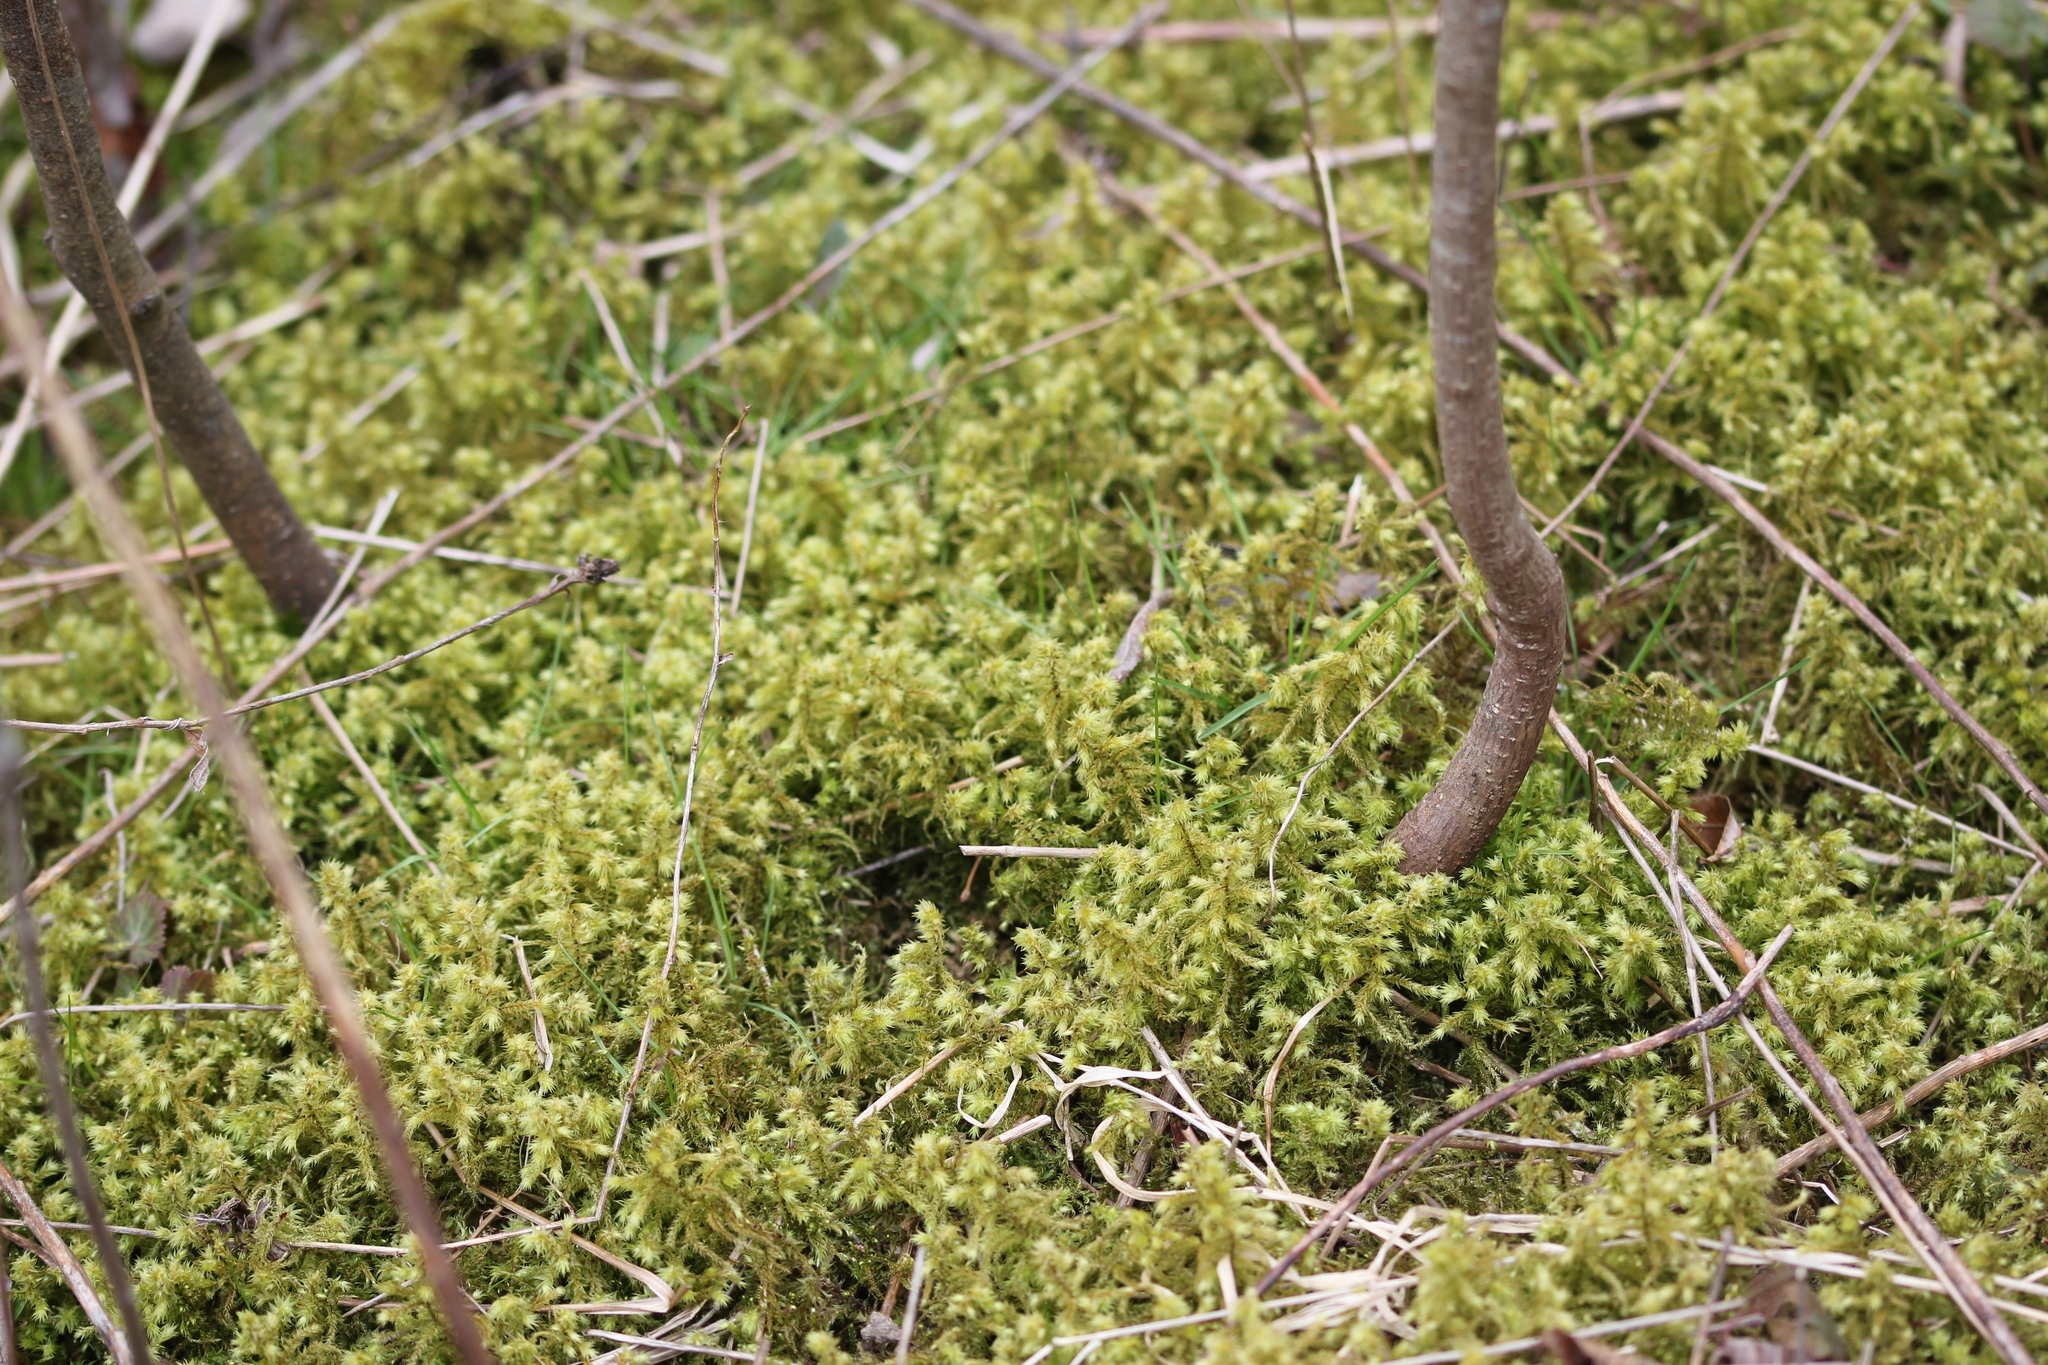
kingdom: Plantae
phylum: Bryophyta
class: Bryopsida
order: Hypnales
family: Hylocomiaceae
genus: Hylocomiadelphus
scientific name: Hylocomiadelphus triquetrus
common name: Rough goose neck moss
